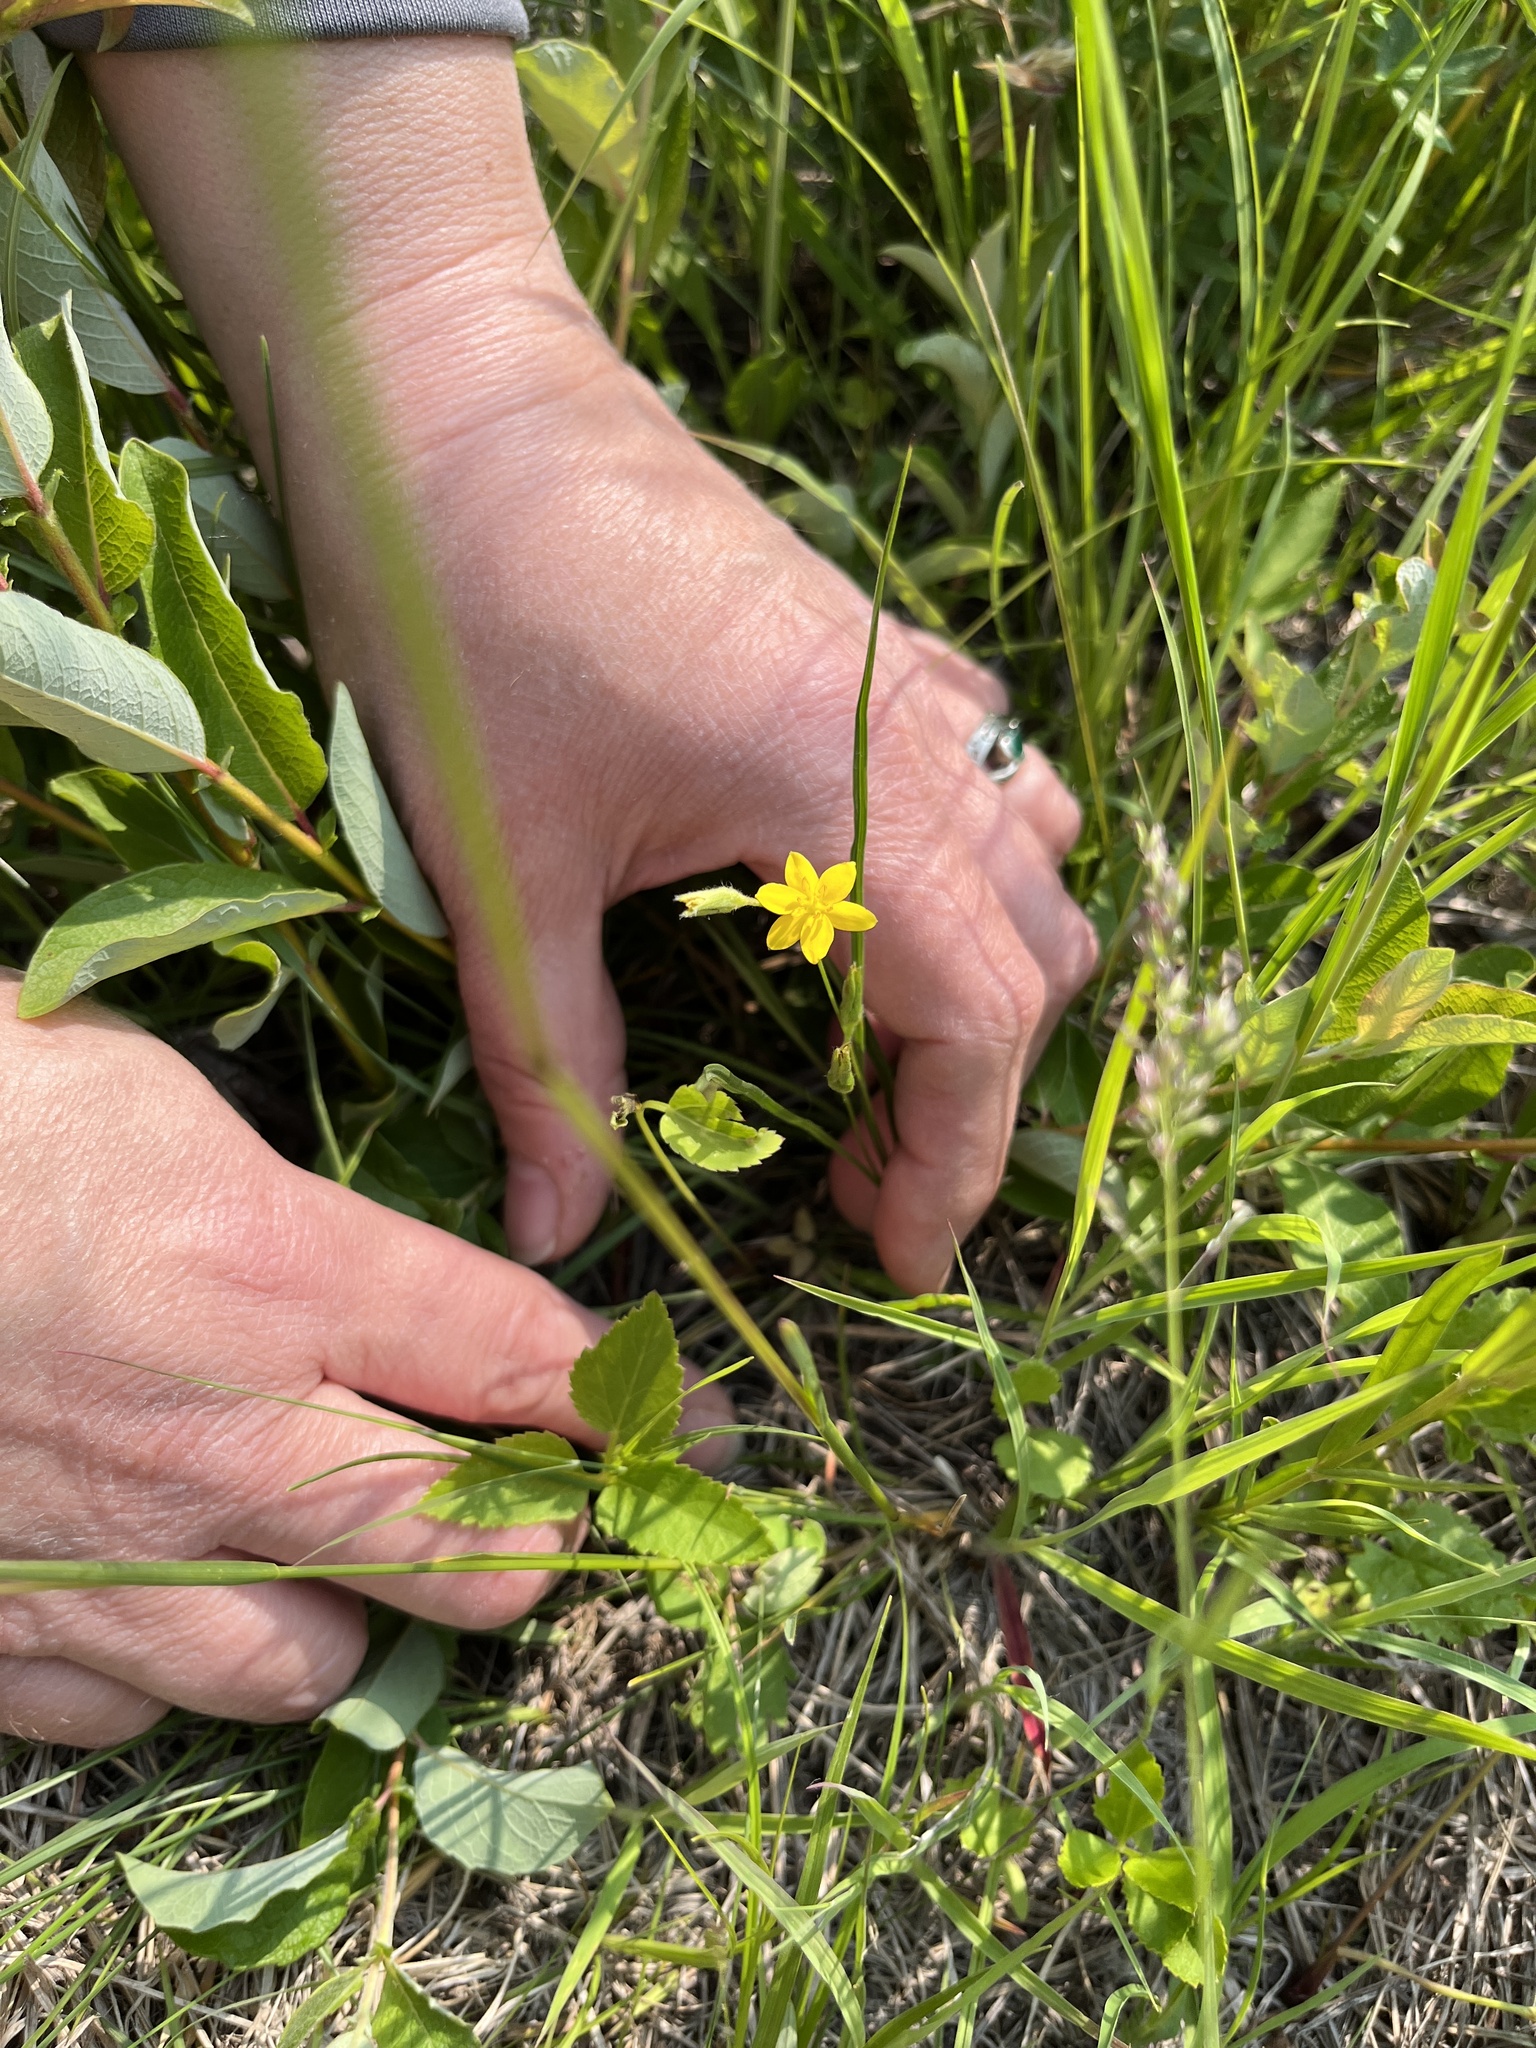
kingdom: Plantae
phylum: Tracheophyta
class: Liliopsida
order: Asparagales
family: Hypoxidaceae
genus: Hypoxis
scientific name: Hypoxis hirsuta
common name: Common goldstar
